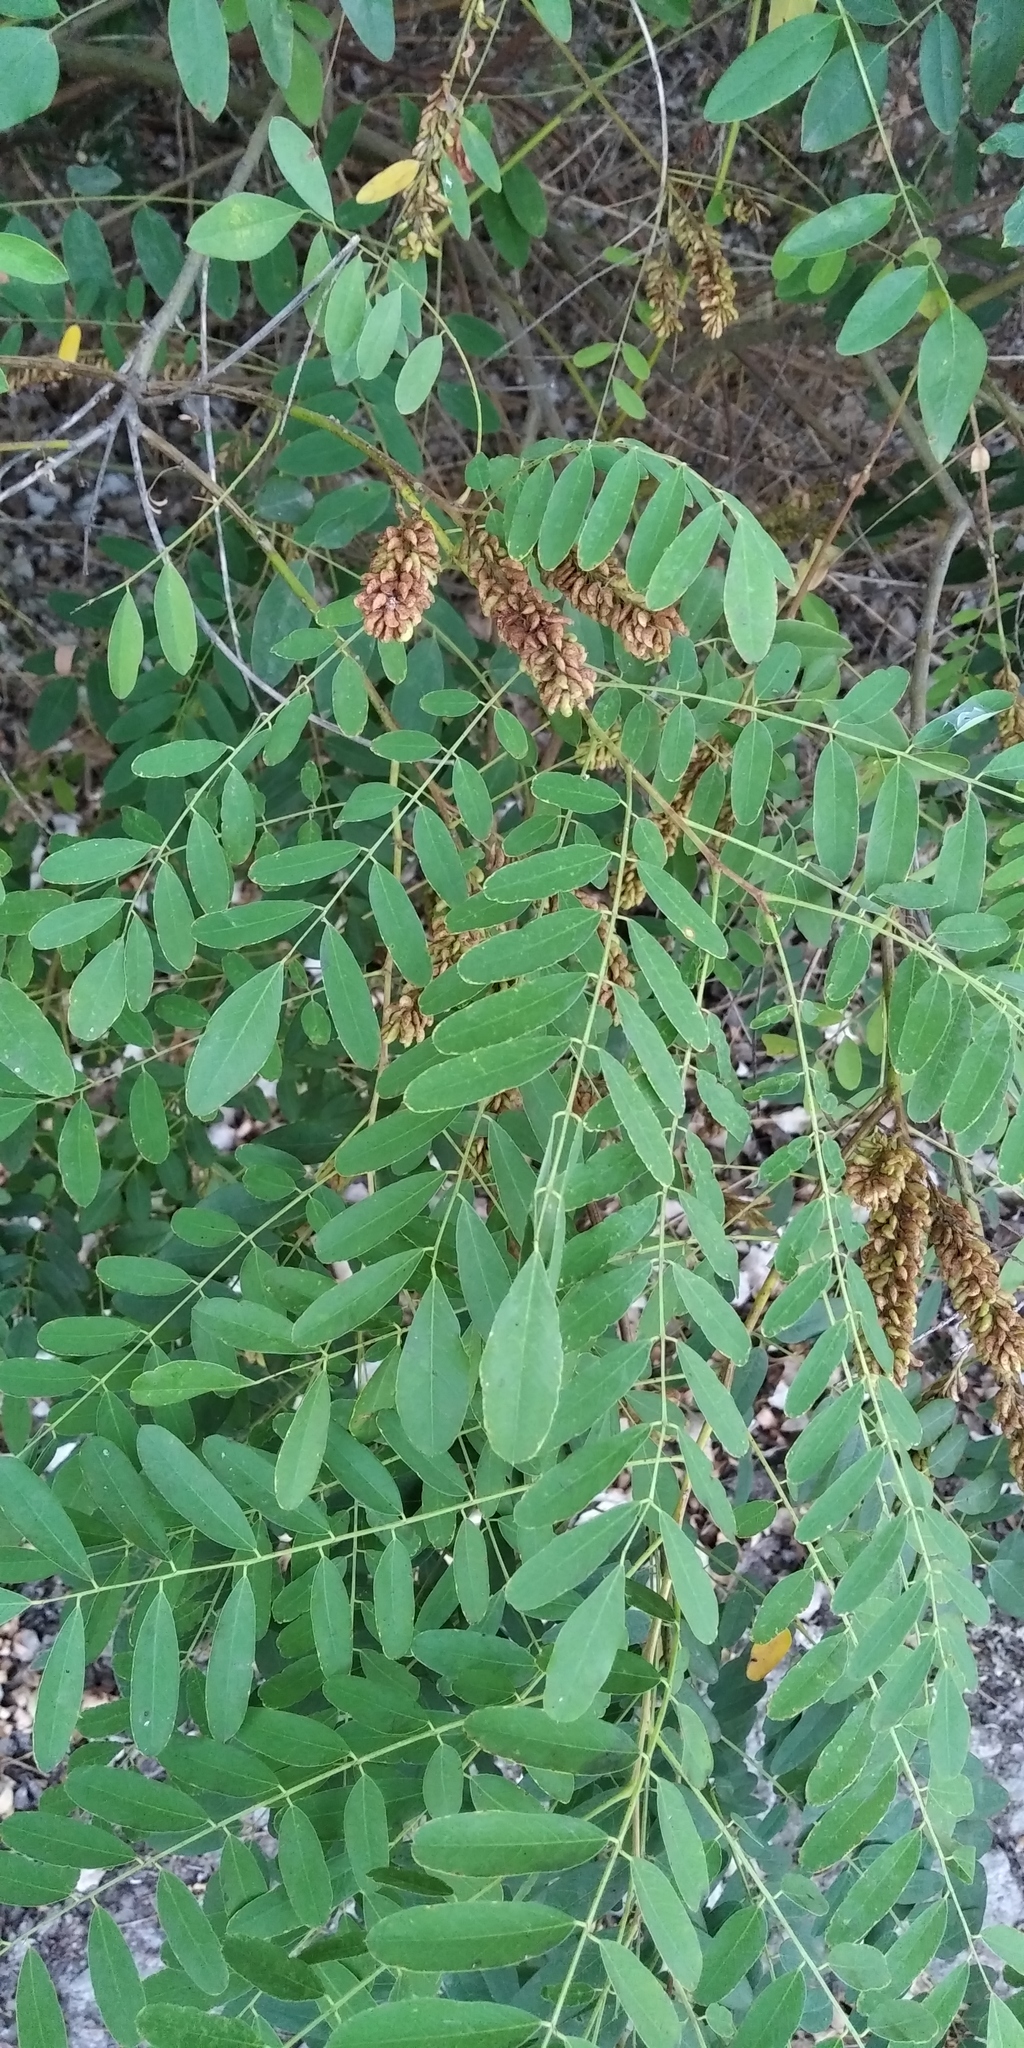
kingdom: Plantae
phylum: Tracheophyta
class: Magnoliopsida
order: Fabales
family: Fabaceae
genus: Amorpha
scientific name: Amorpha fruticosa
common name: False indigo
